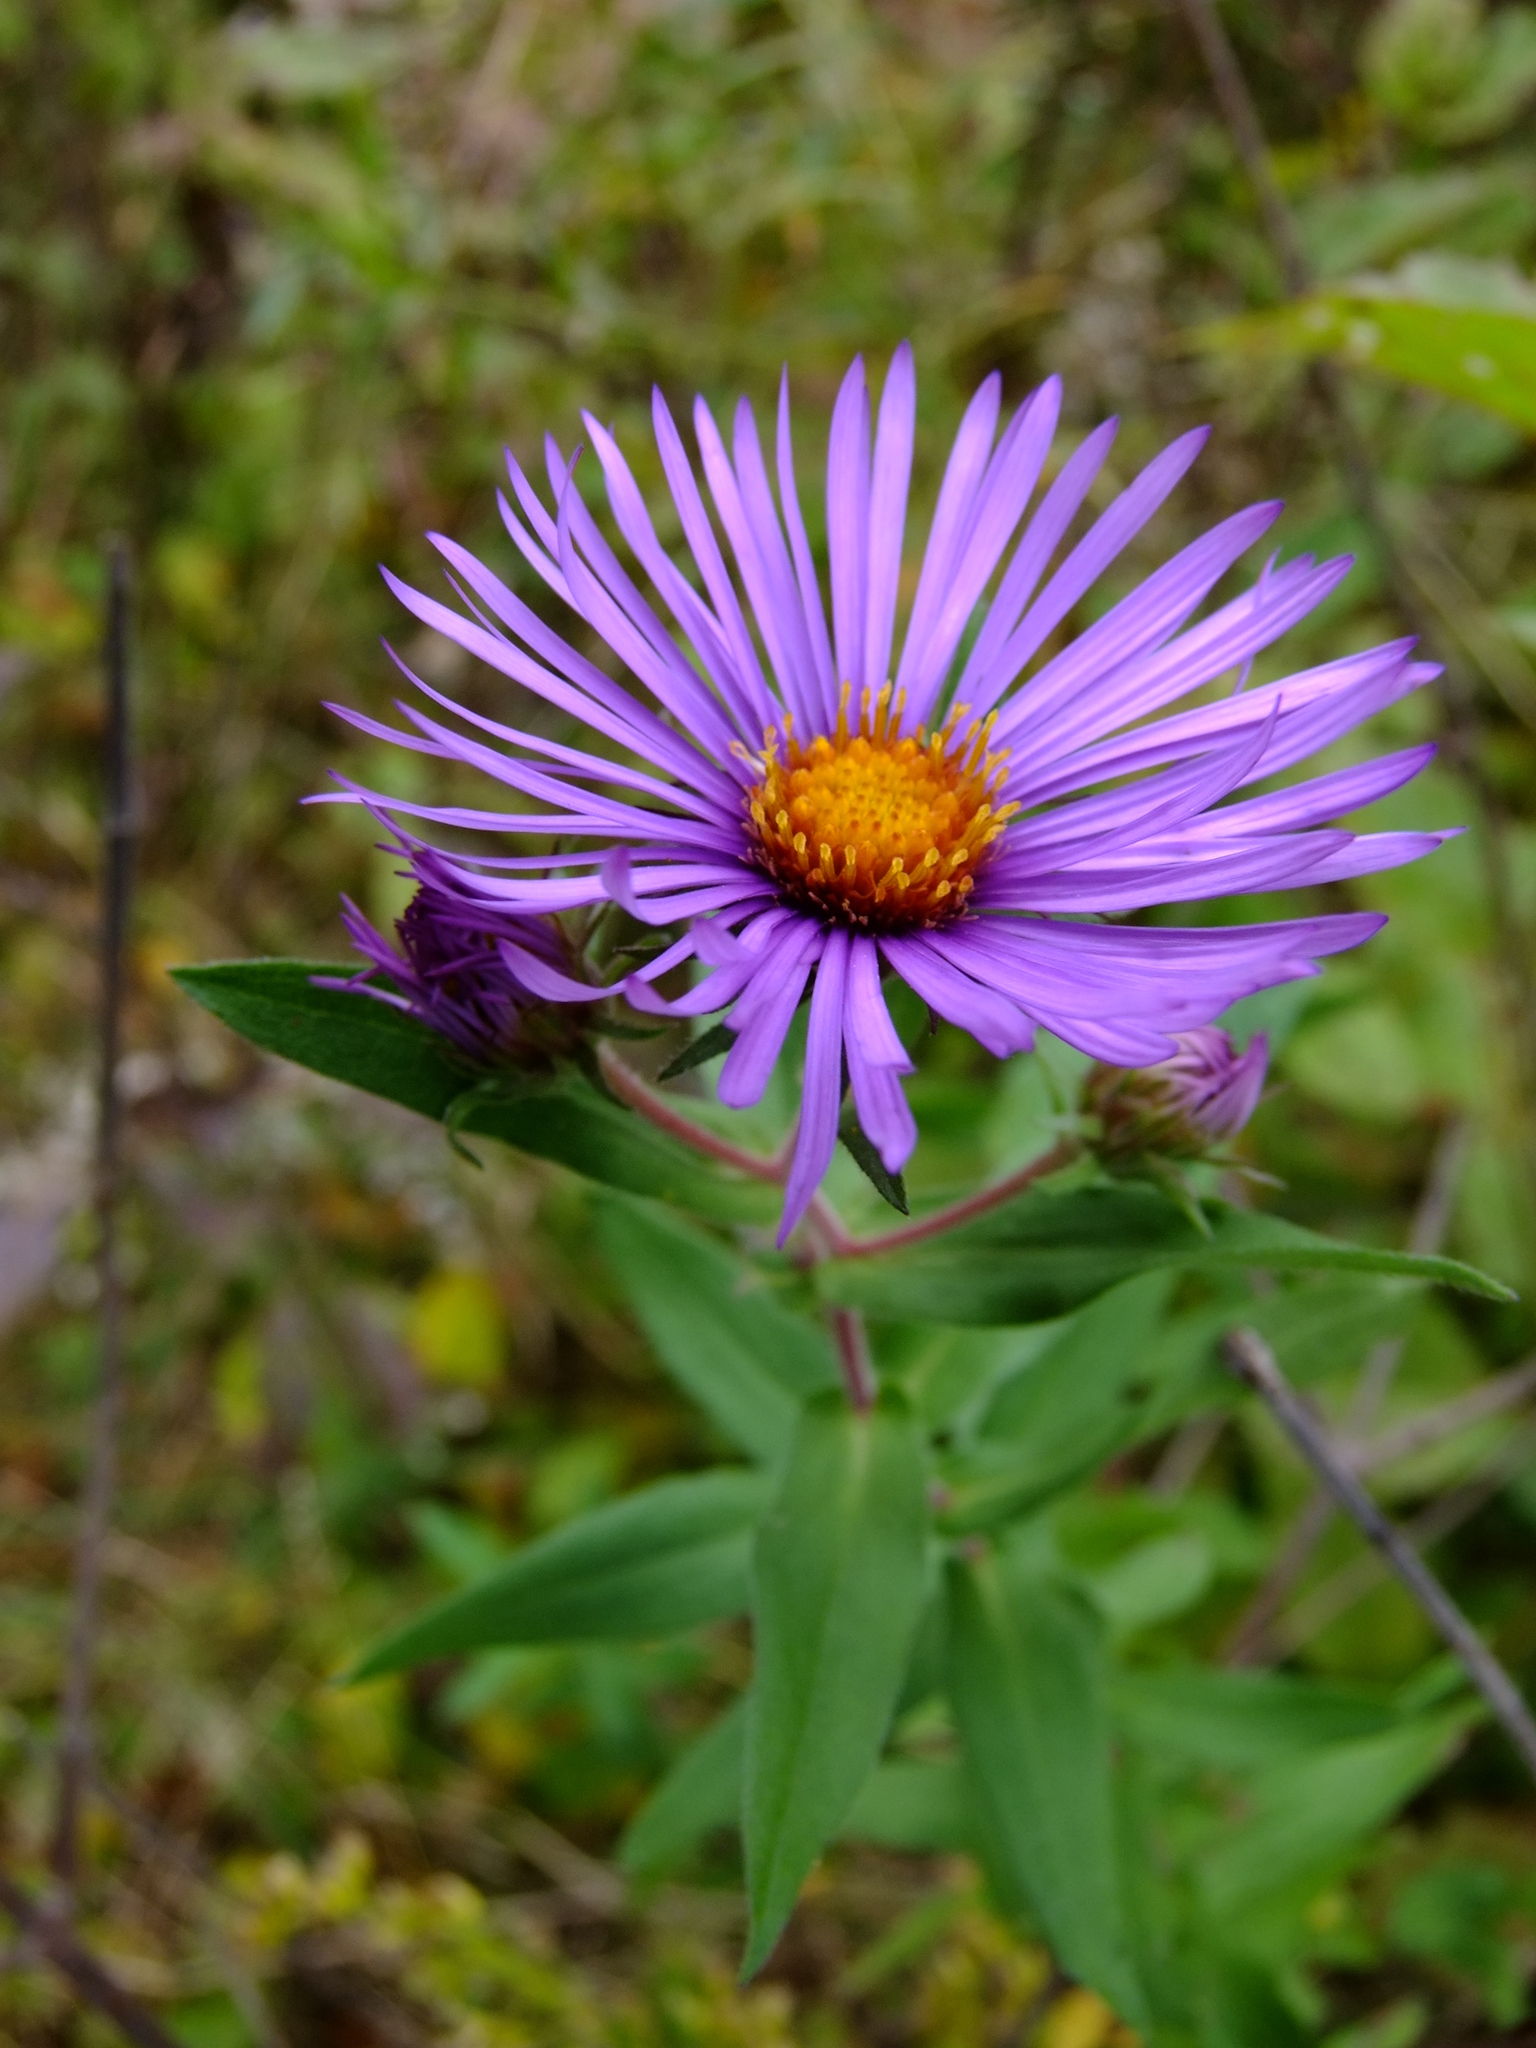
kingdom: Plantae
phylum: Tracheophyta
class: Magnoliopsida
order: Asterales
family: Asteraceae
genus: Symphyotrichum
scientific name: Symphyotrichum novae-angliae
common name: Michaelmas daisy
